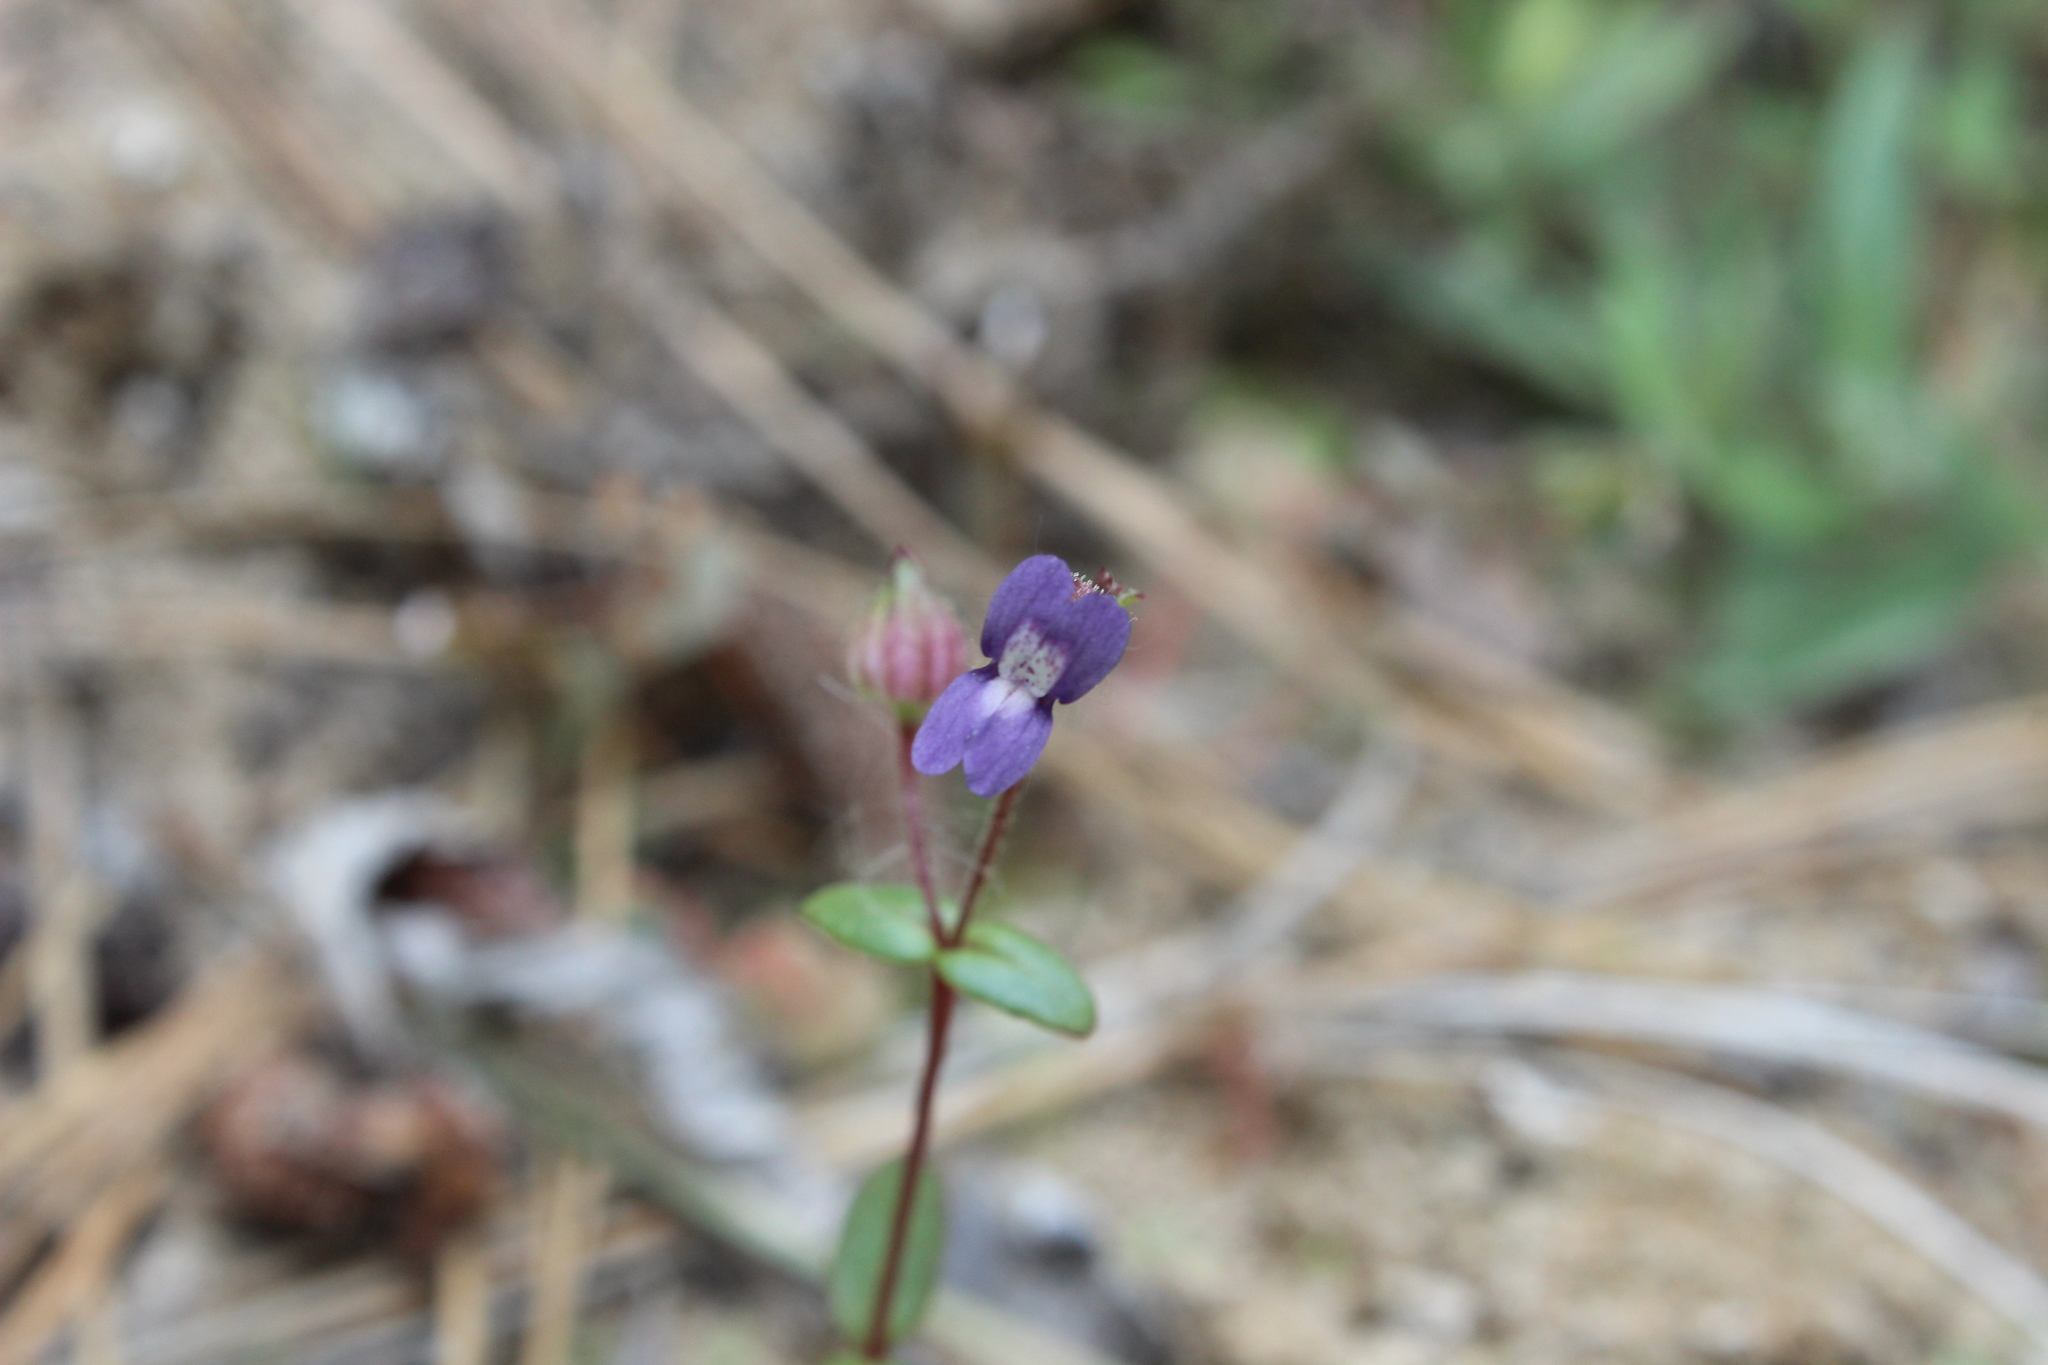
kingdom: Plantae
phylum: Tracheophyta
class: Magnoliopsida
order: Lamiales
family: Plantaginaceae
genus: Collinsia
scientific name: Collinsia callosa
